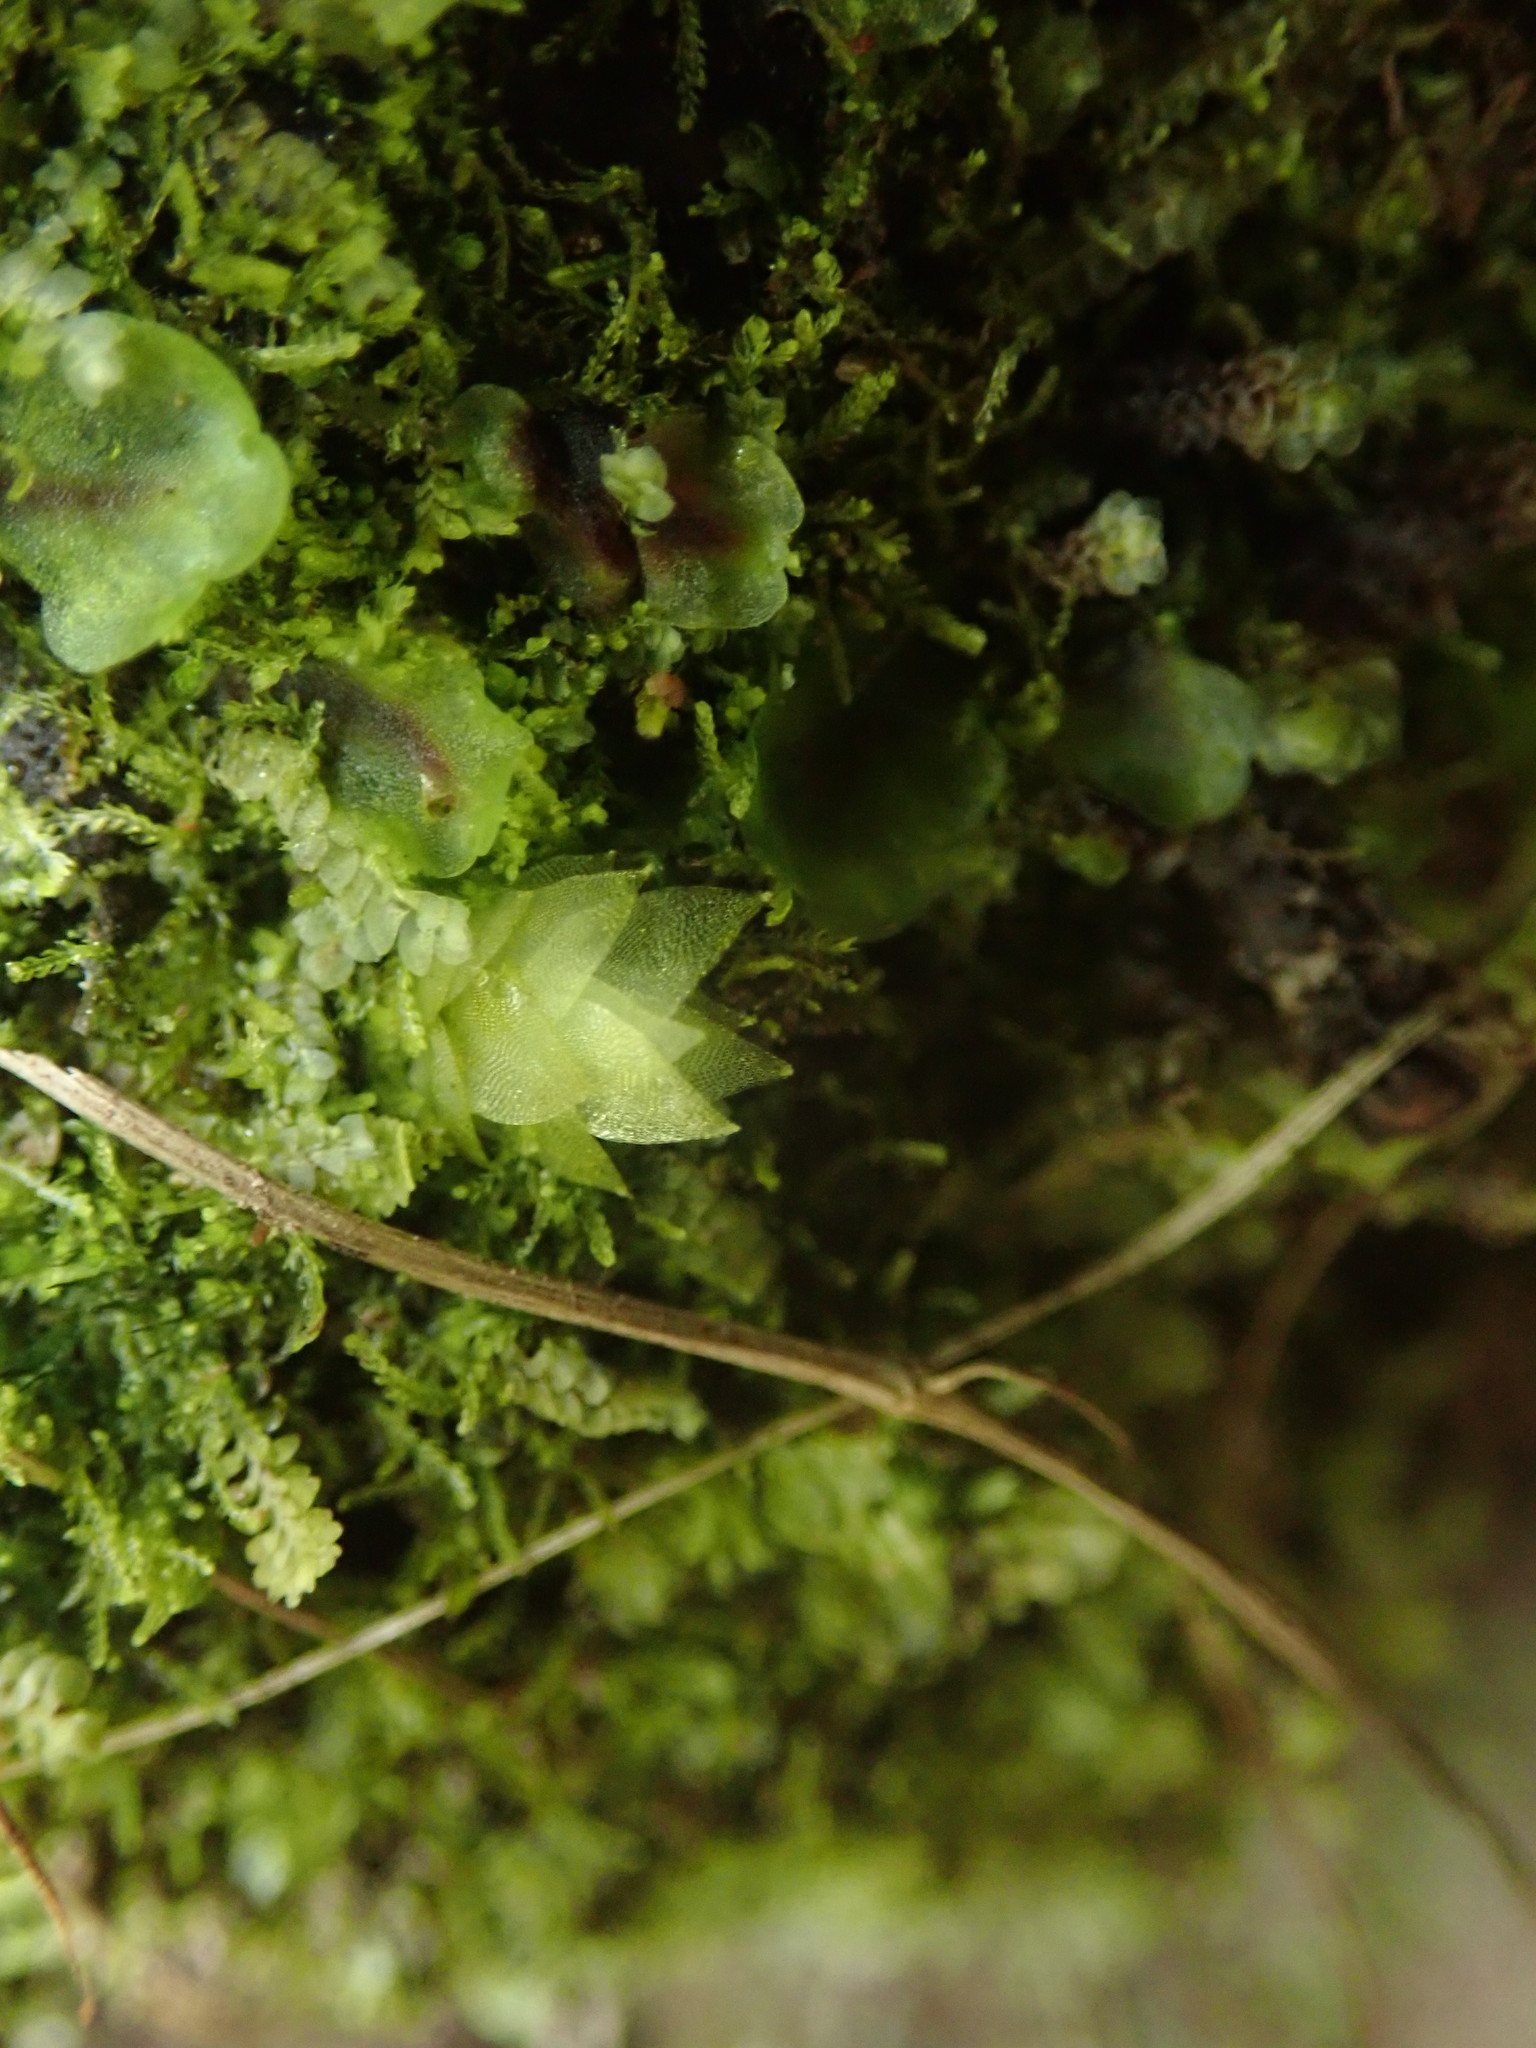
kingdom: Plantae
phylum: Bryophyta
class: Bryopsida
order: Hookeriales
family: Hookeriaceae
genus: Hookeria
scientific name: Hookeria acutifolia
